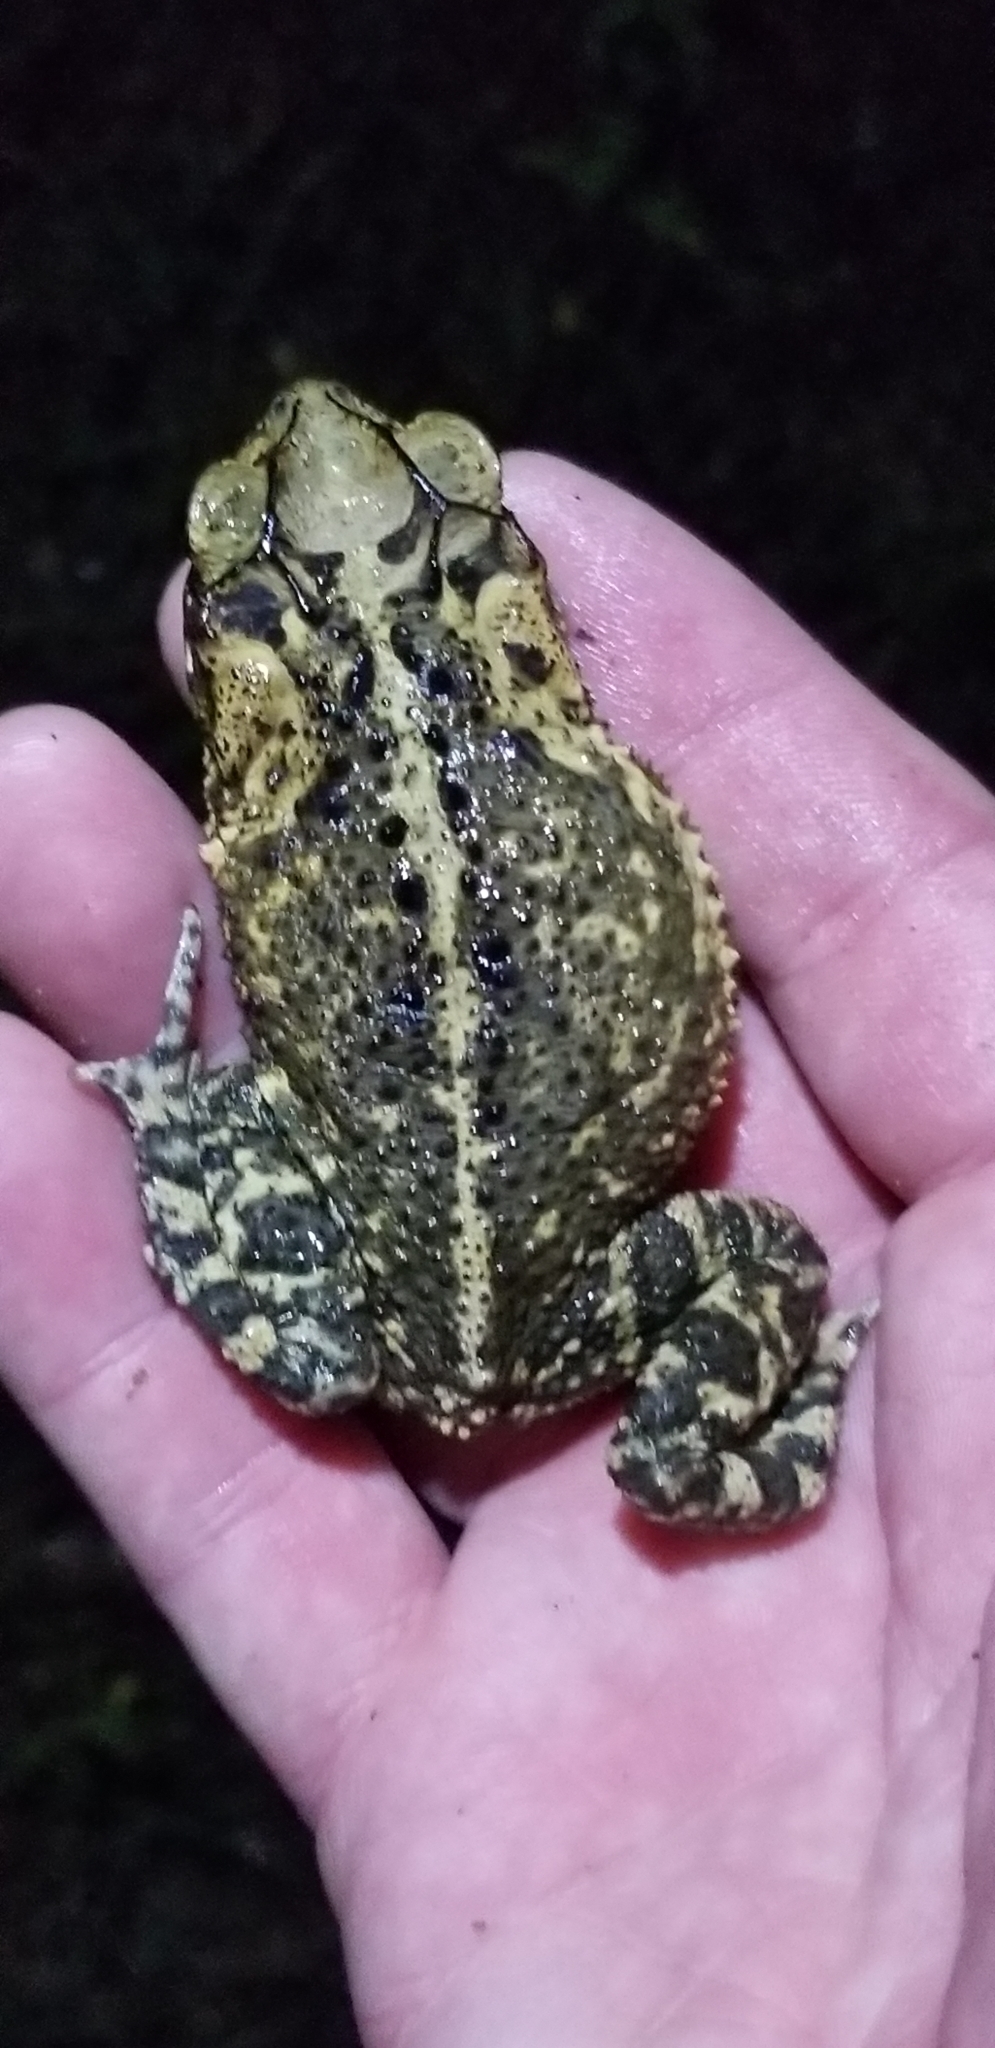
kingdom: Animalia
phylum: Chordata
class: Amphibia
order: Anura
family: Bufonidae
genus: Incilius
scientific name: Incilius nebulifer
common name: Gulf coast toad
